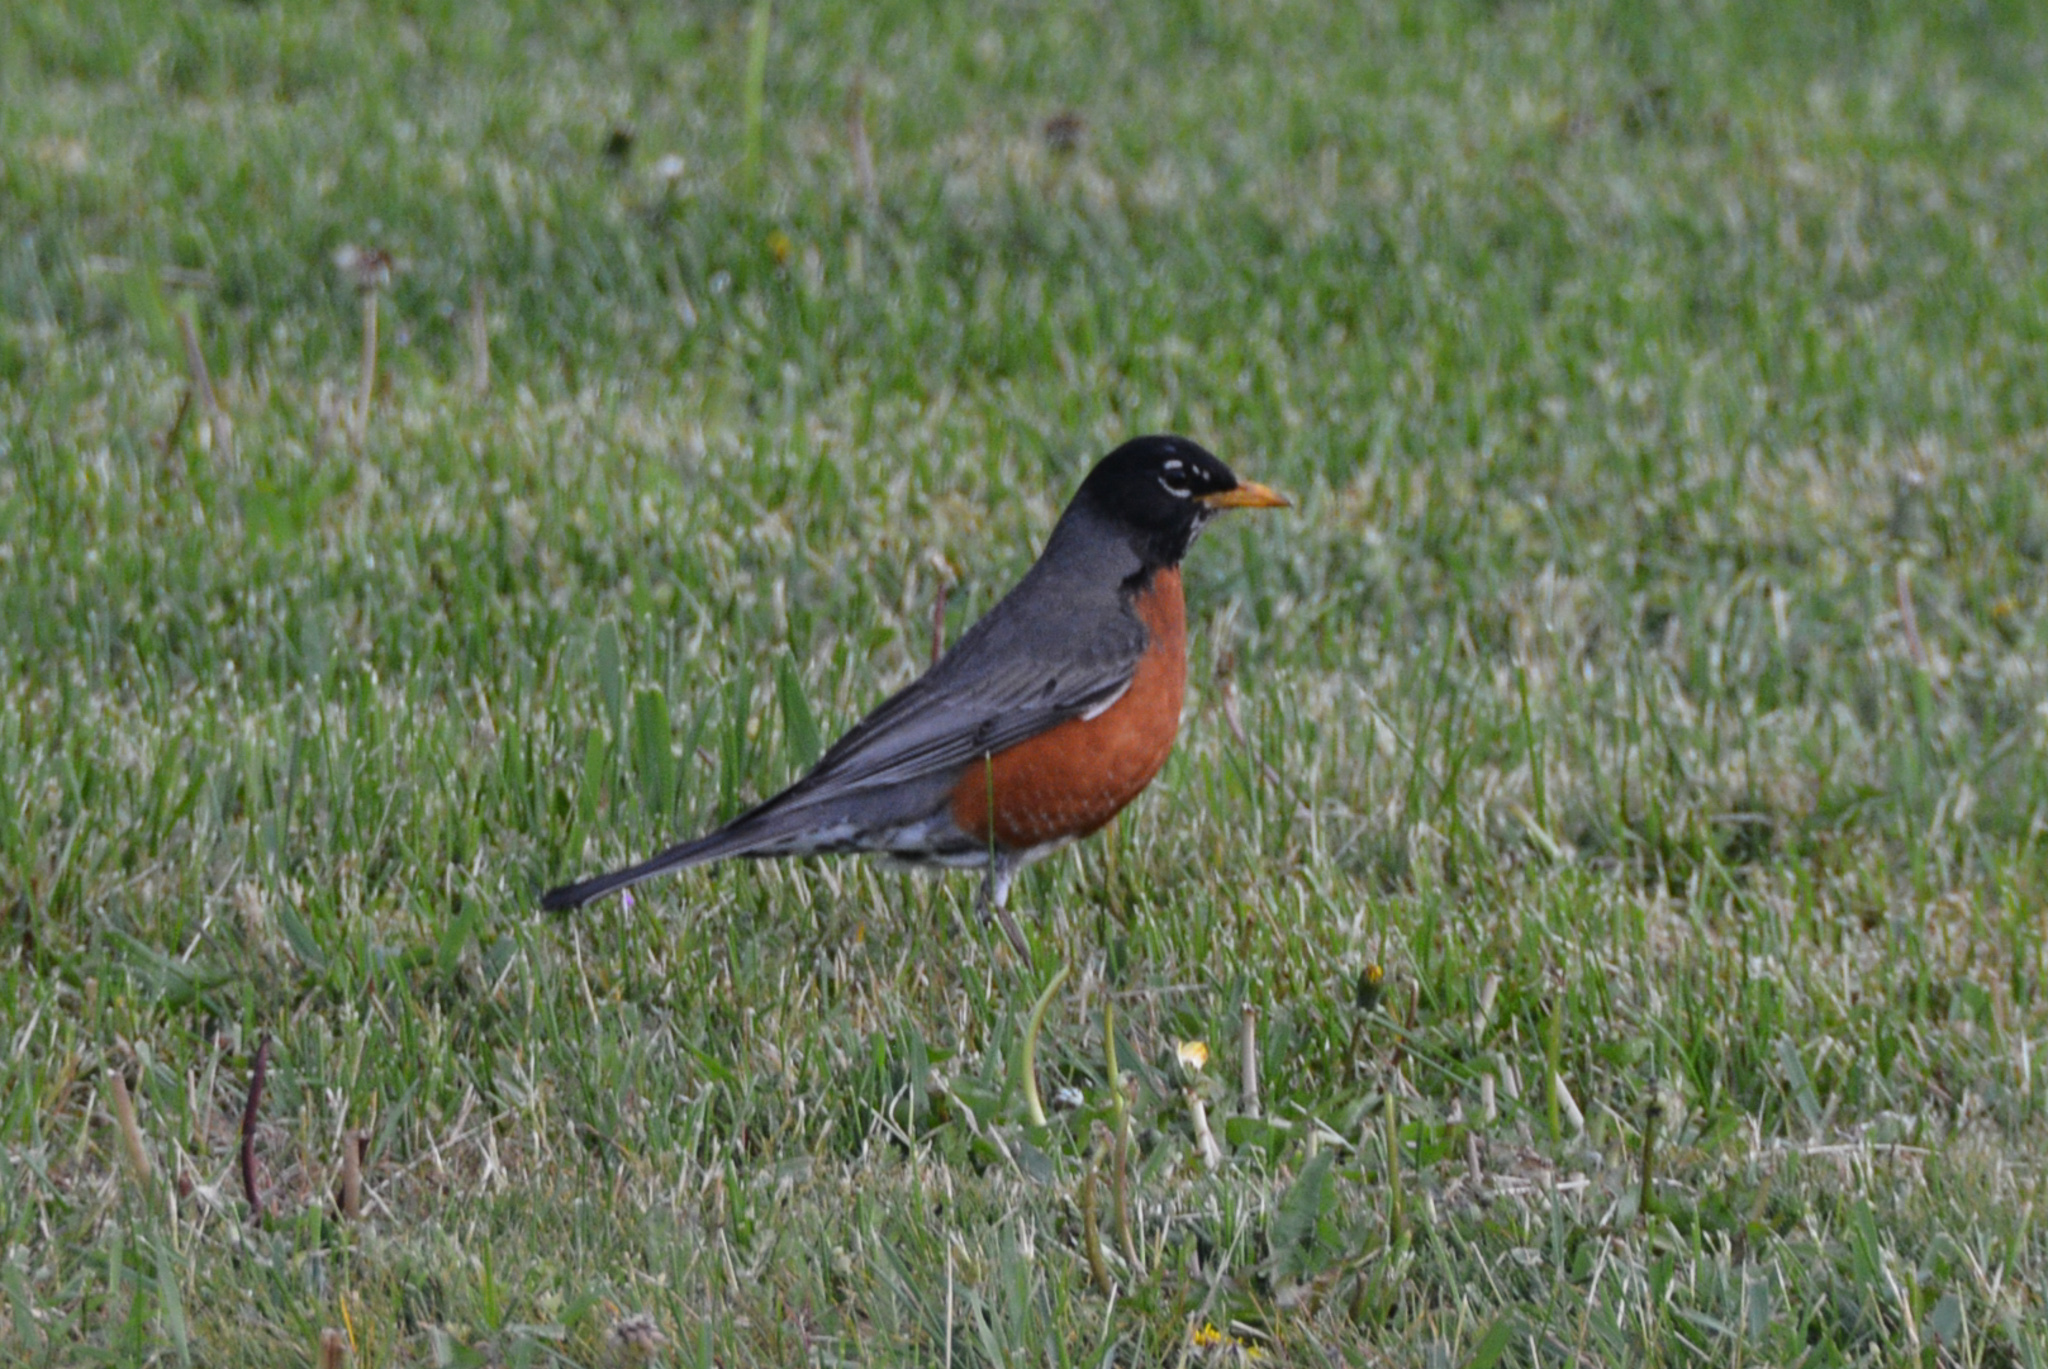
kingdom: Animalia
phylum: Chordata
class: Aves
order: Passeriformes
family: Turdidae
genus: Turdus
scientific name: Turdus migratorius
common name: American robin
